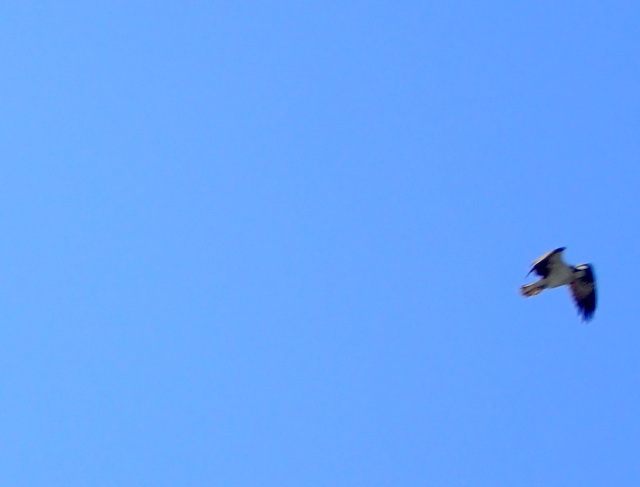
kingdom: Animalia
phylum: Chordata
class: Aves
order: Accipitriformes
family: Pandionidae
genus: Pandion
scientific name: Pandion haliaetus
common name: Osprey
